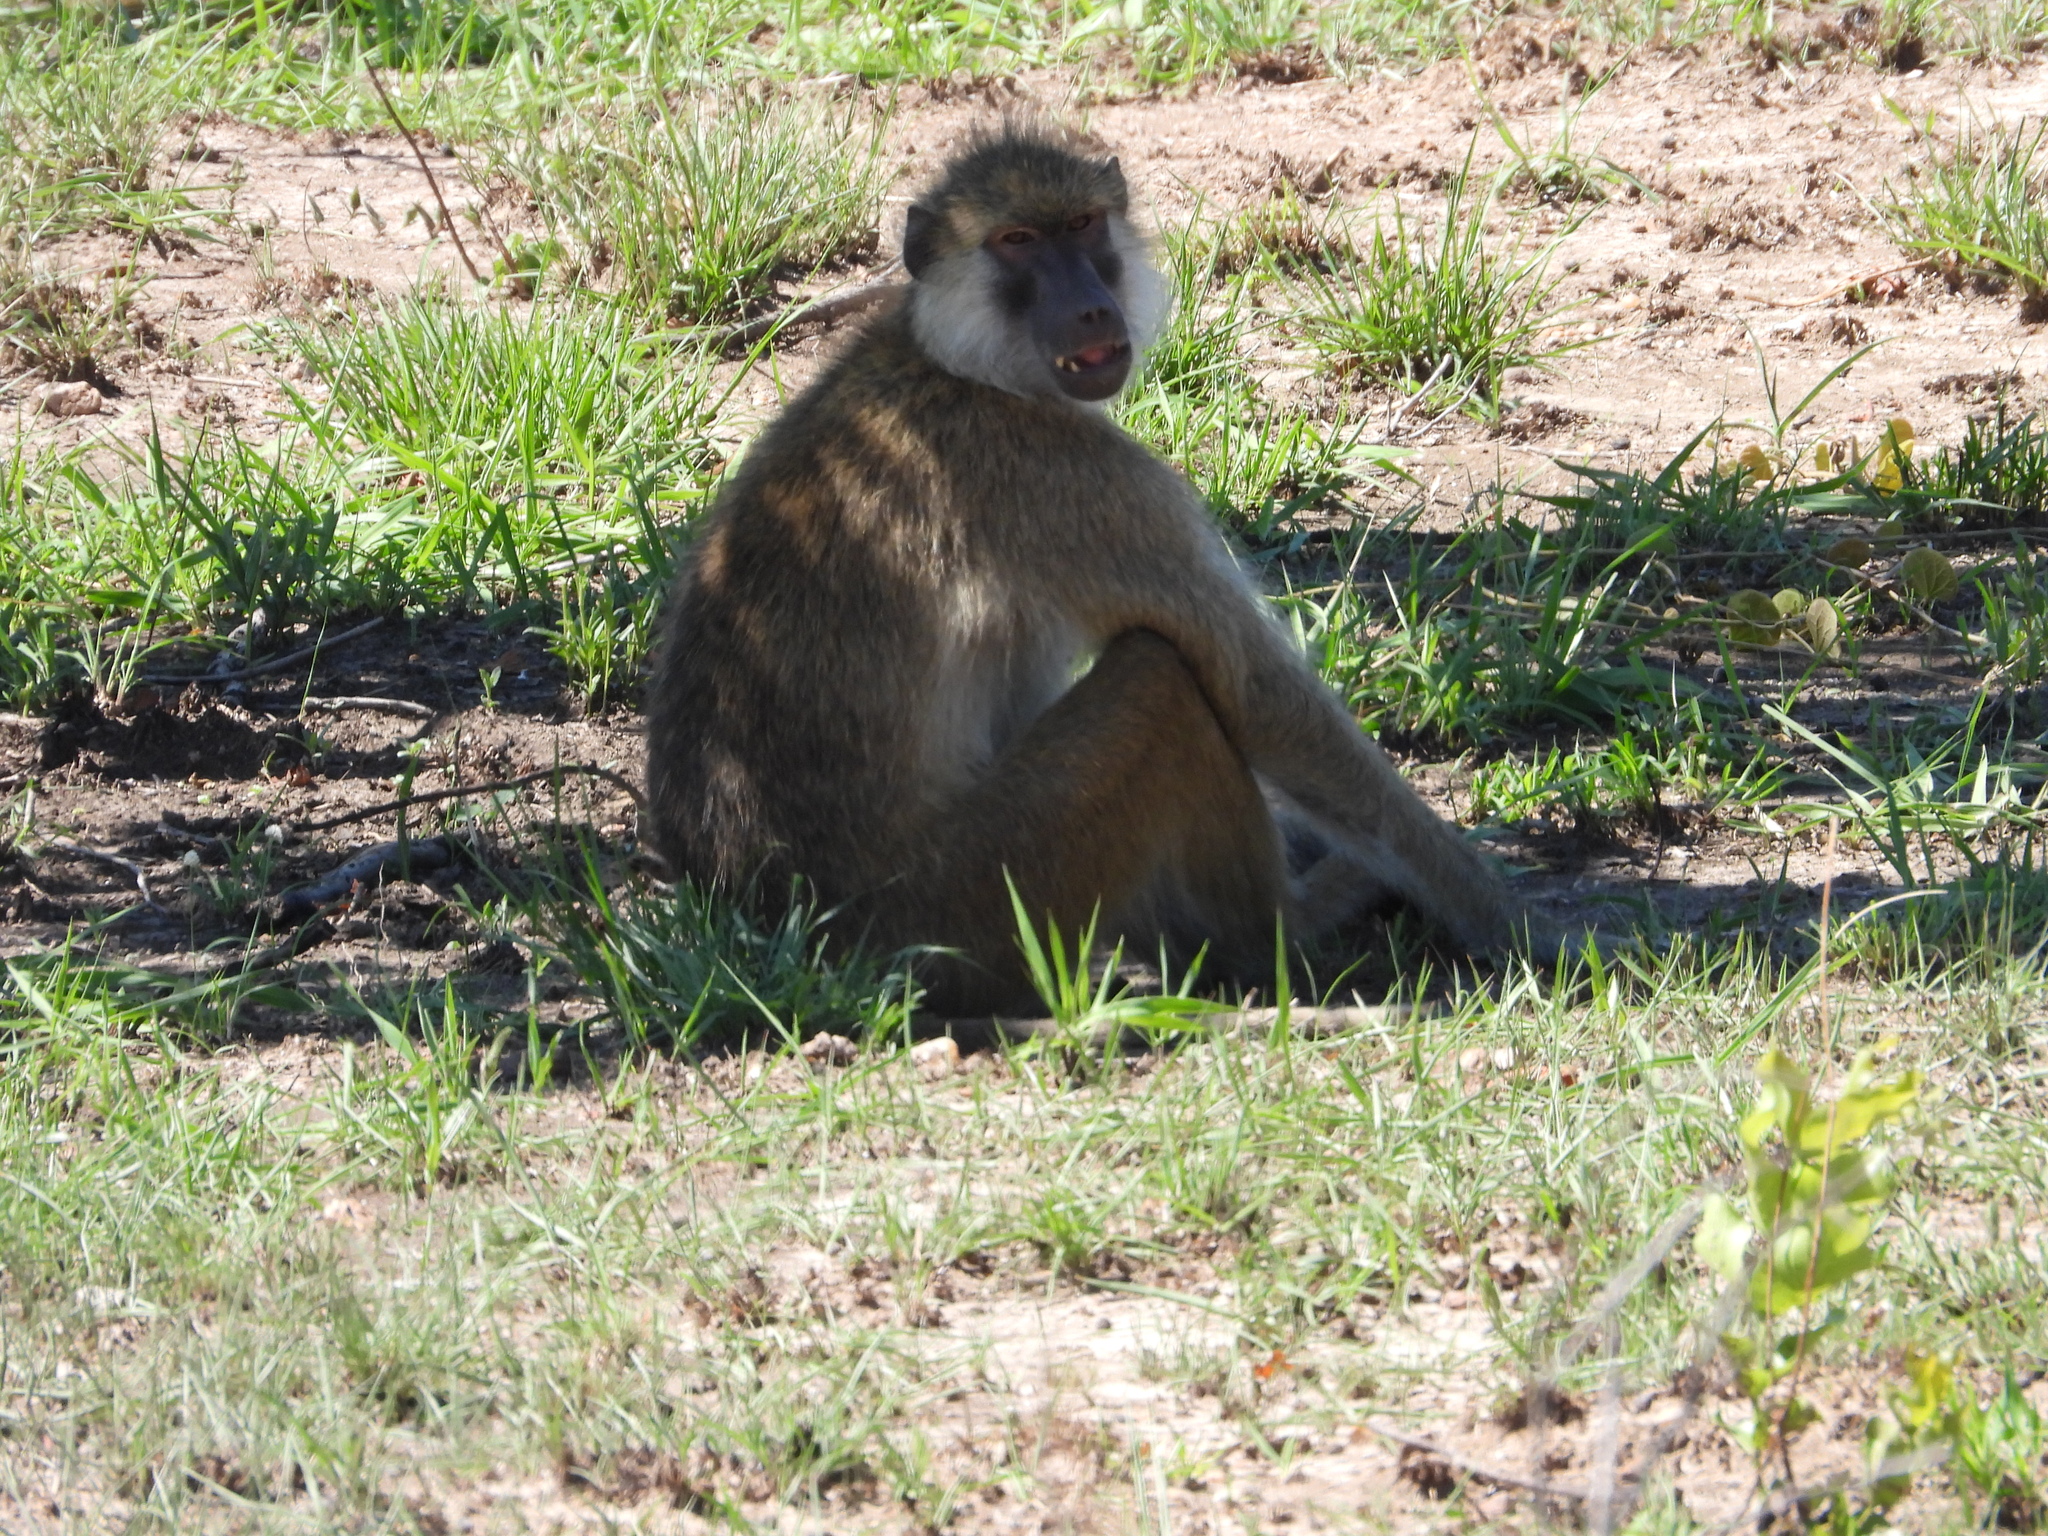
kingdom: Animalia
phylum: Chordata
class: Mammalia
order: Primates
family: Cercopithecidae
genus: Papio
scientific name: Papio kindae
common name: Kinda baboon
